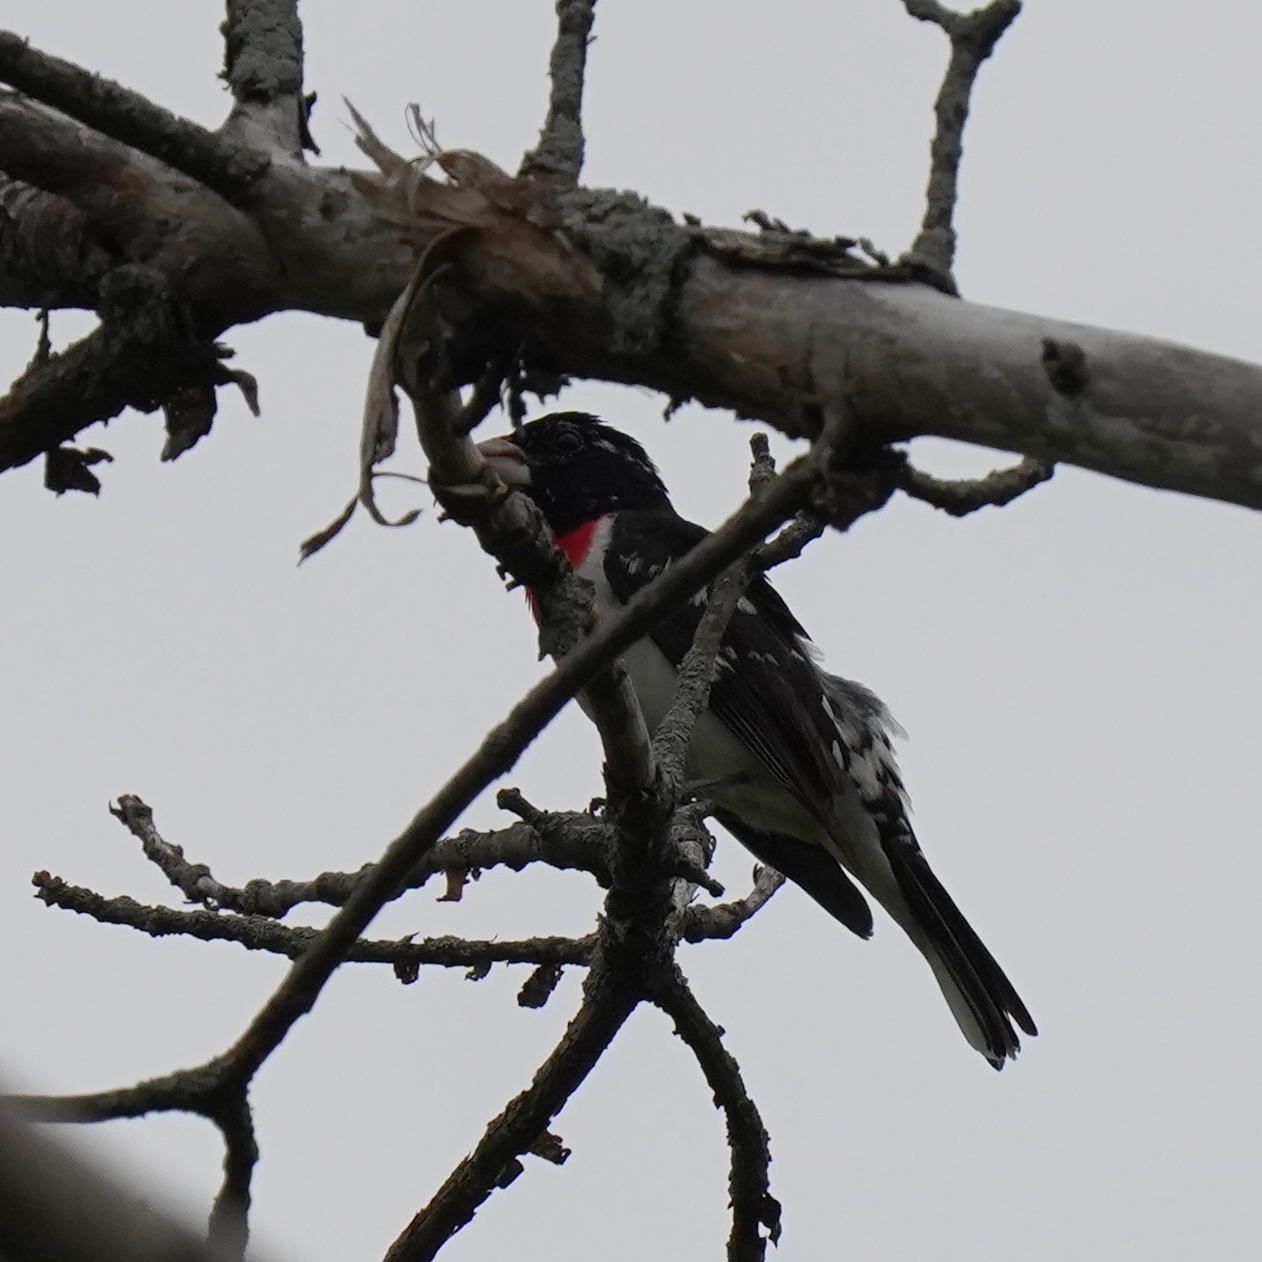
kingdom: Animalia
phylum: Chordata
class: Aves
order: Passeriformes
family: Cardinalidae
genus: Pheucticus
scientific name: Pheucticus ludovicianus
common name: Rose-breasted grosbeak
